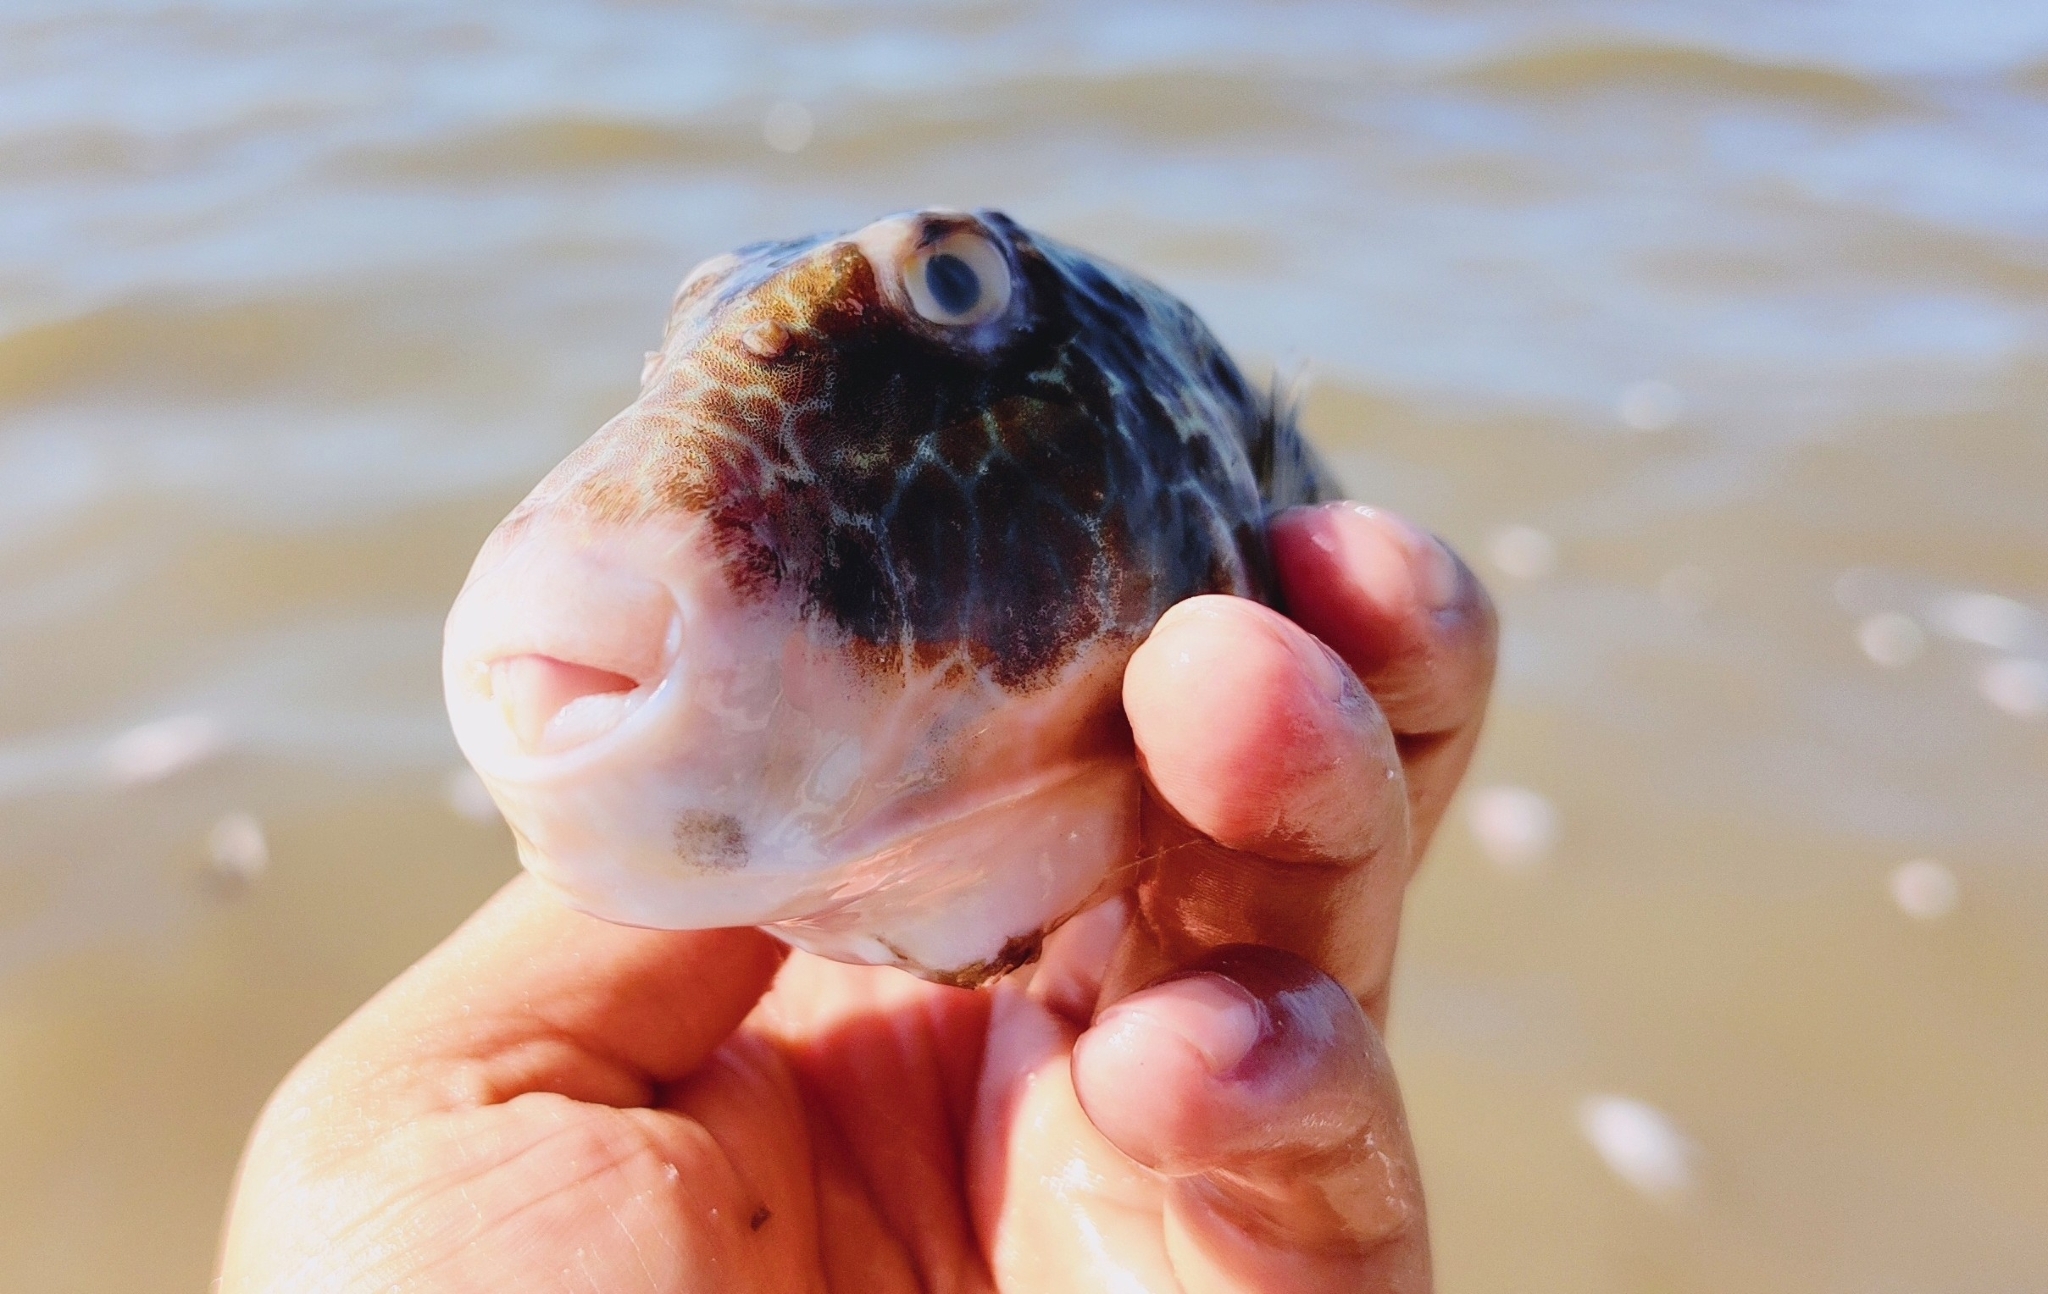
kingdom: Animalia
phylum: Chordata
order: Tetraodontiformes
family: Tetraodontidae
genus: Sphoeroides
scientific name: Sphoeroides nephelus
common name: Southern puffer
